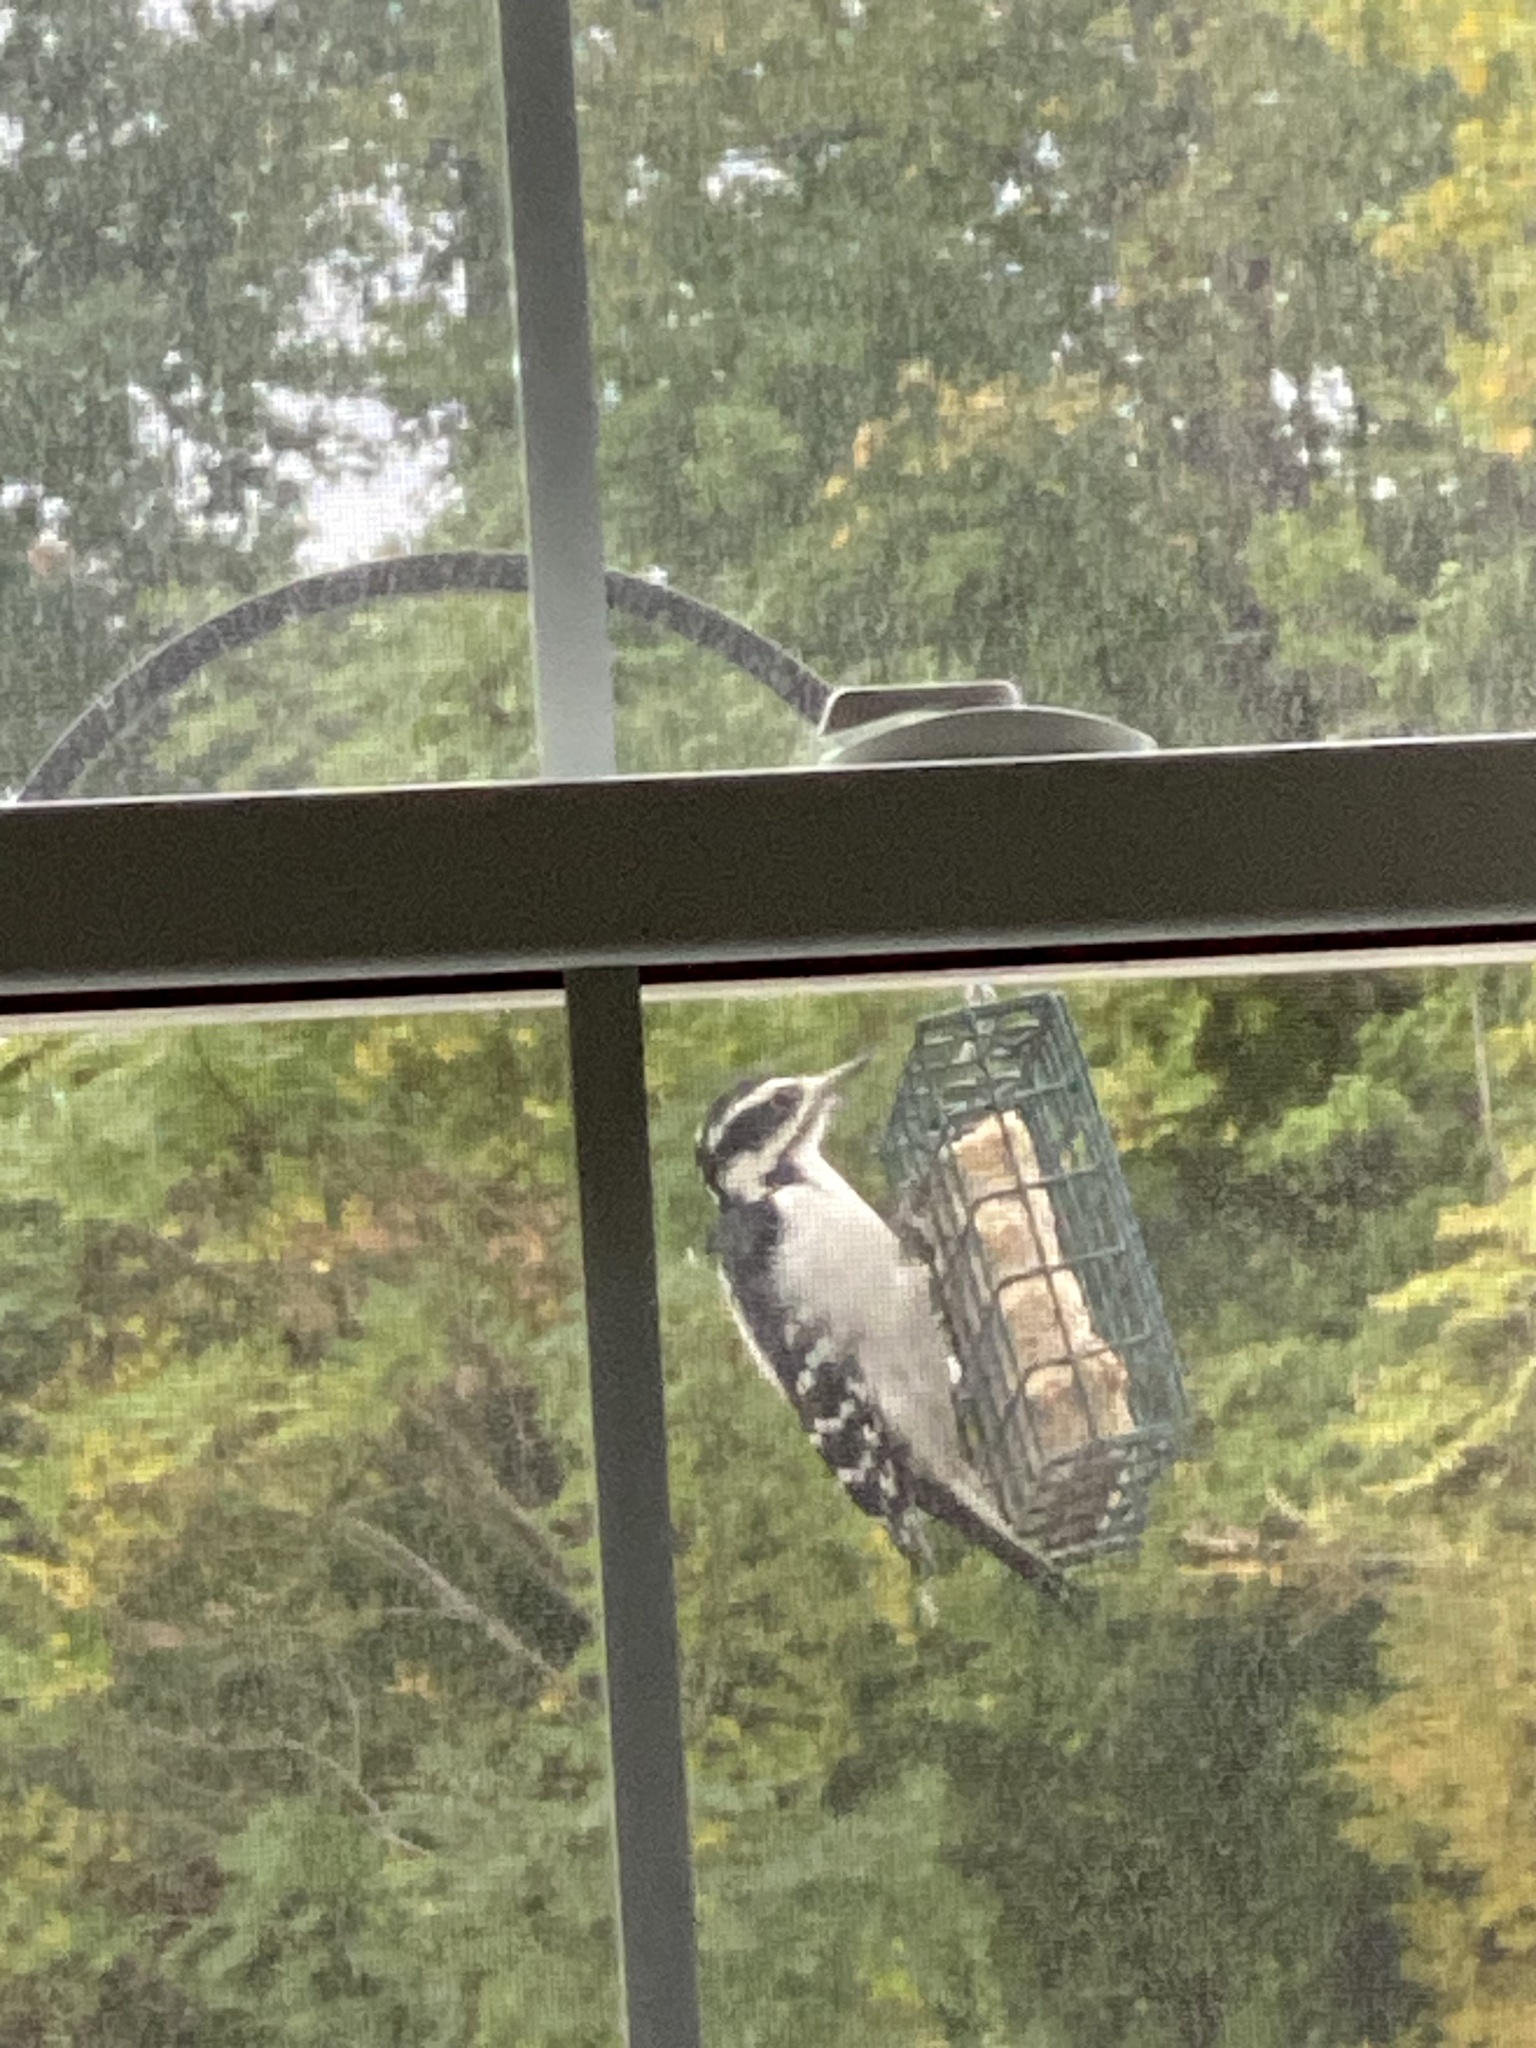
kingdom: Animalia
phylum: Chordata
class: Aves
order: Piciformes
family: Picidae
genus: Leuconotopicus
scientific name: Leuconotopicus villosus
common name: Hairy woodpecker
